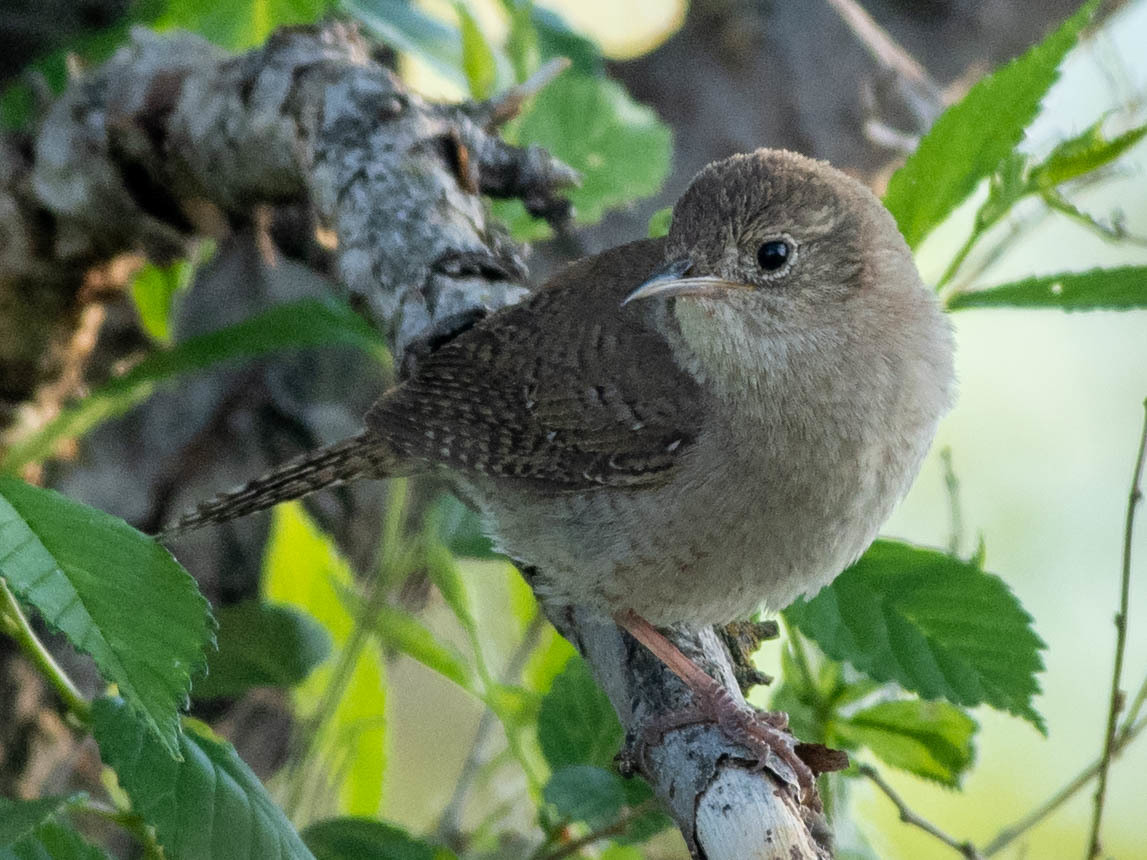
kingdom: Animalia
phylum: Chordata
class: Aves
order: Passeriformes
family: Troglodytidae
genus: Troglodytes
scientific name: Troglodytes aedon
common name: House wren
